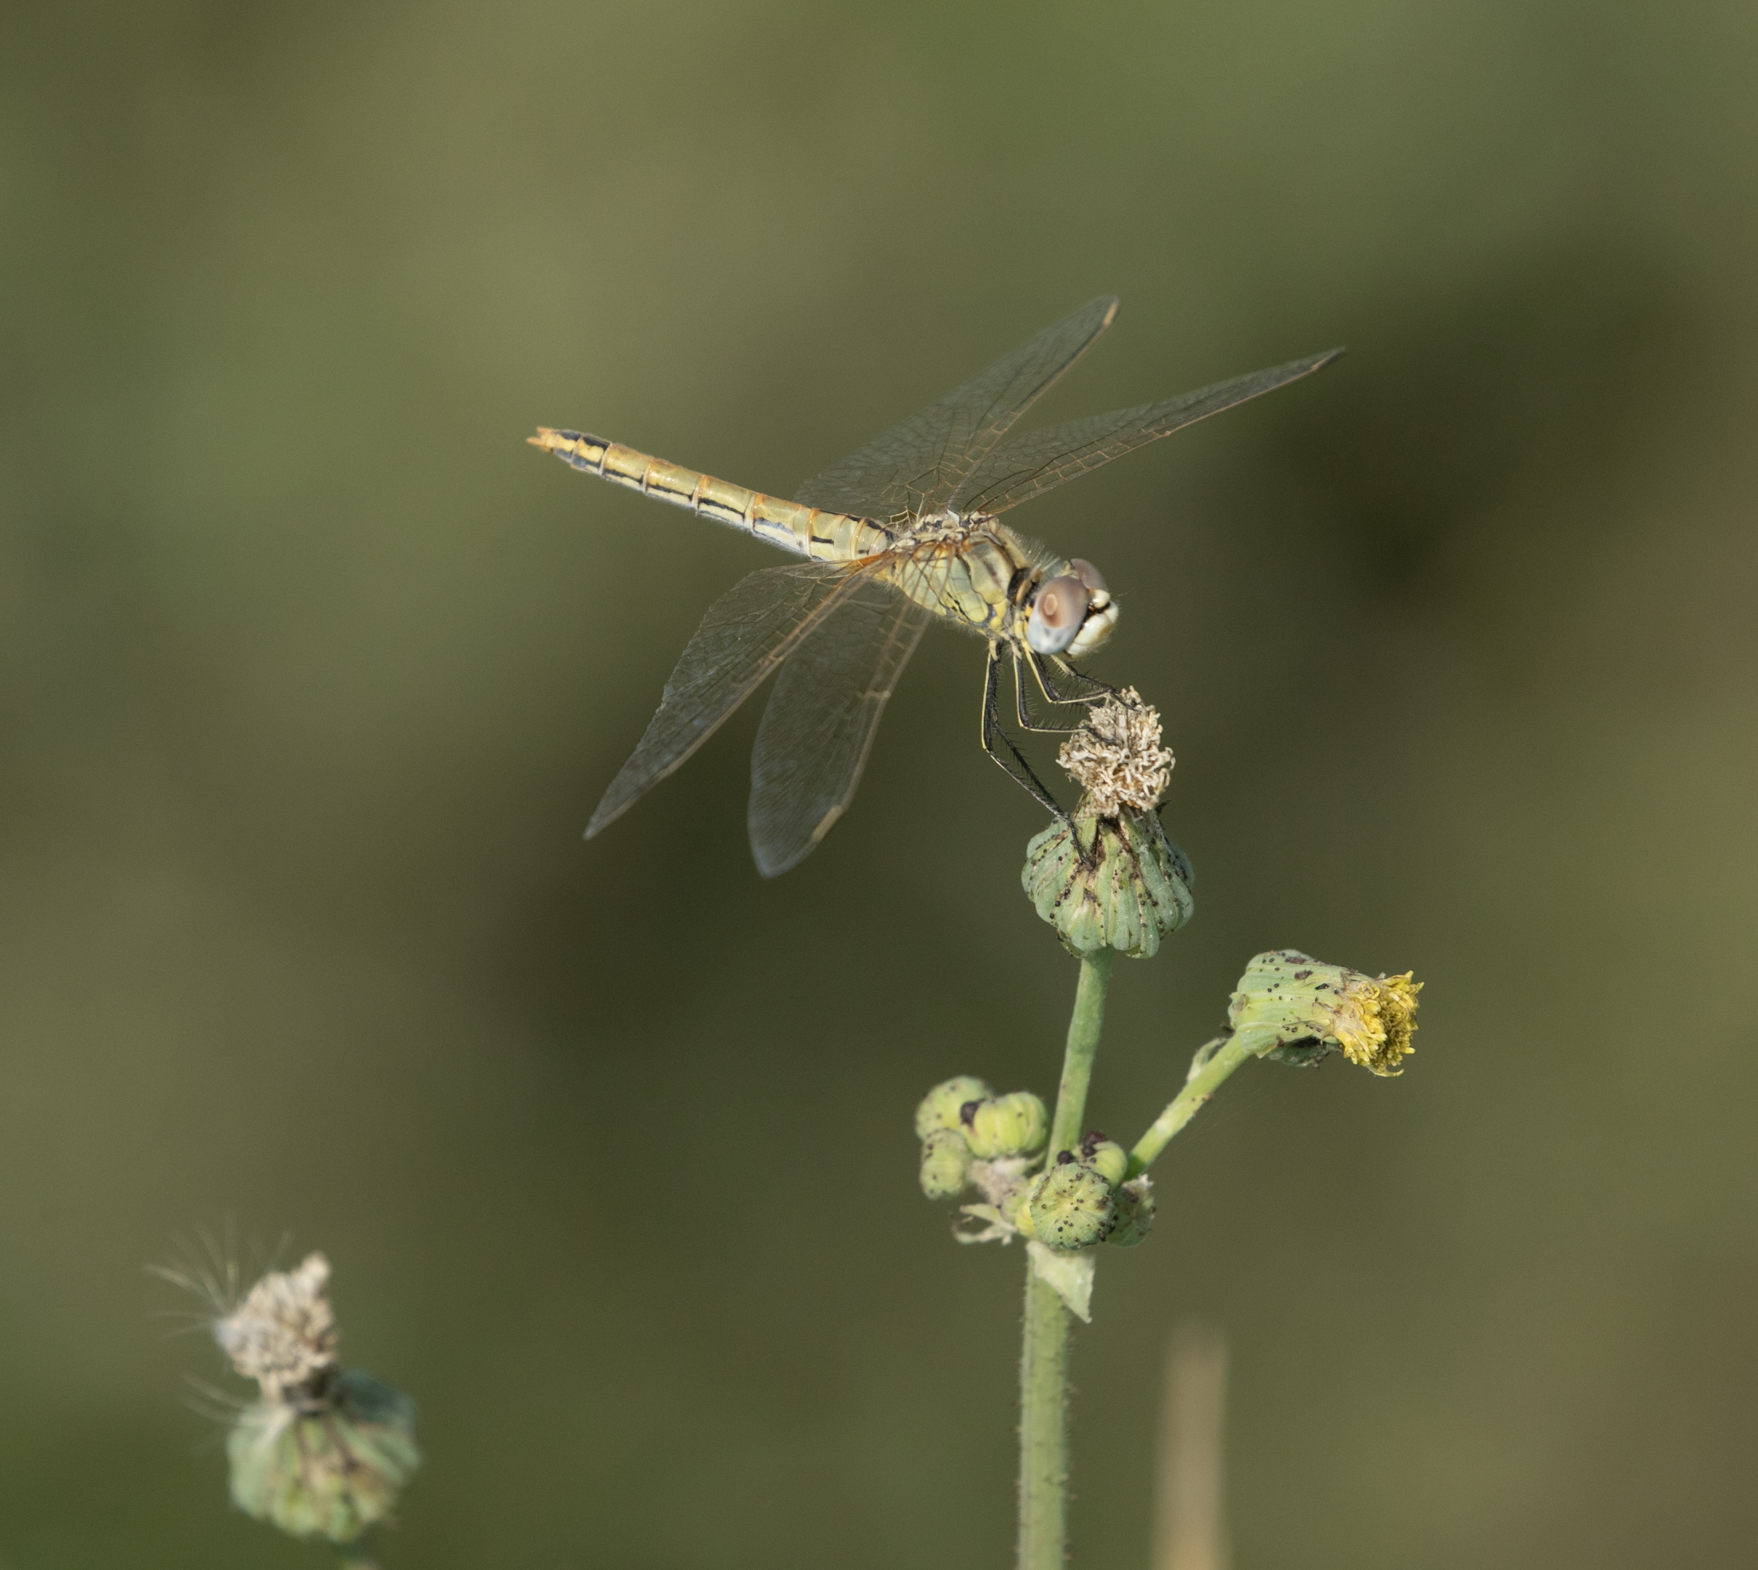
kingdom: Animalia
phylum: Arthropoda
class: Insecta
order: Odonata
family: Libellulidae
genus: Sympetrum
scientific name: Sympetrum fonscolombii
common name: Red-veined darter
